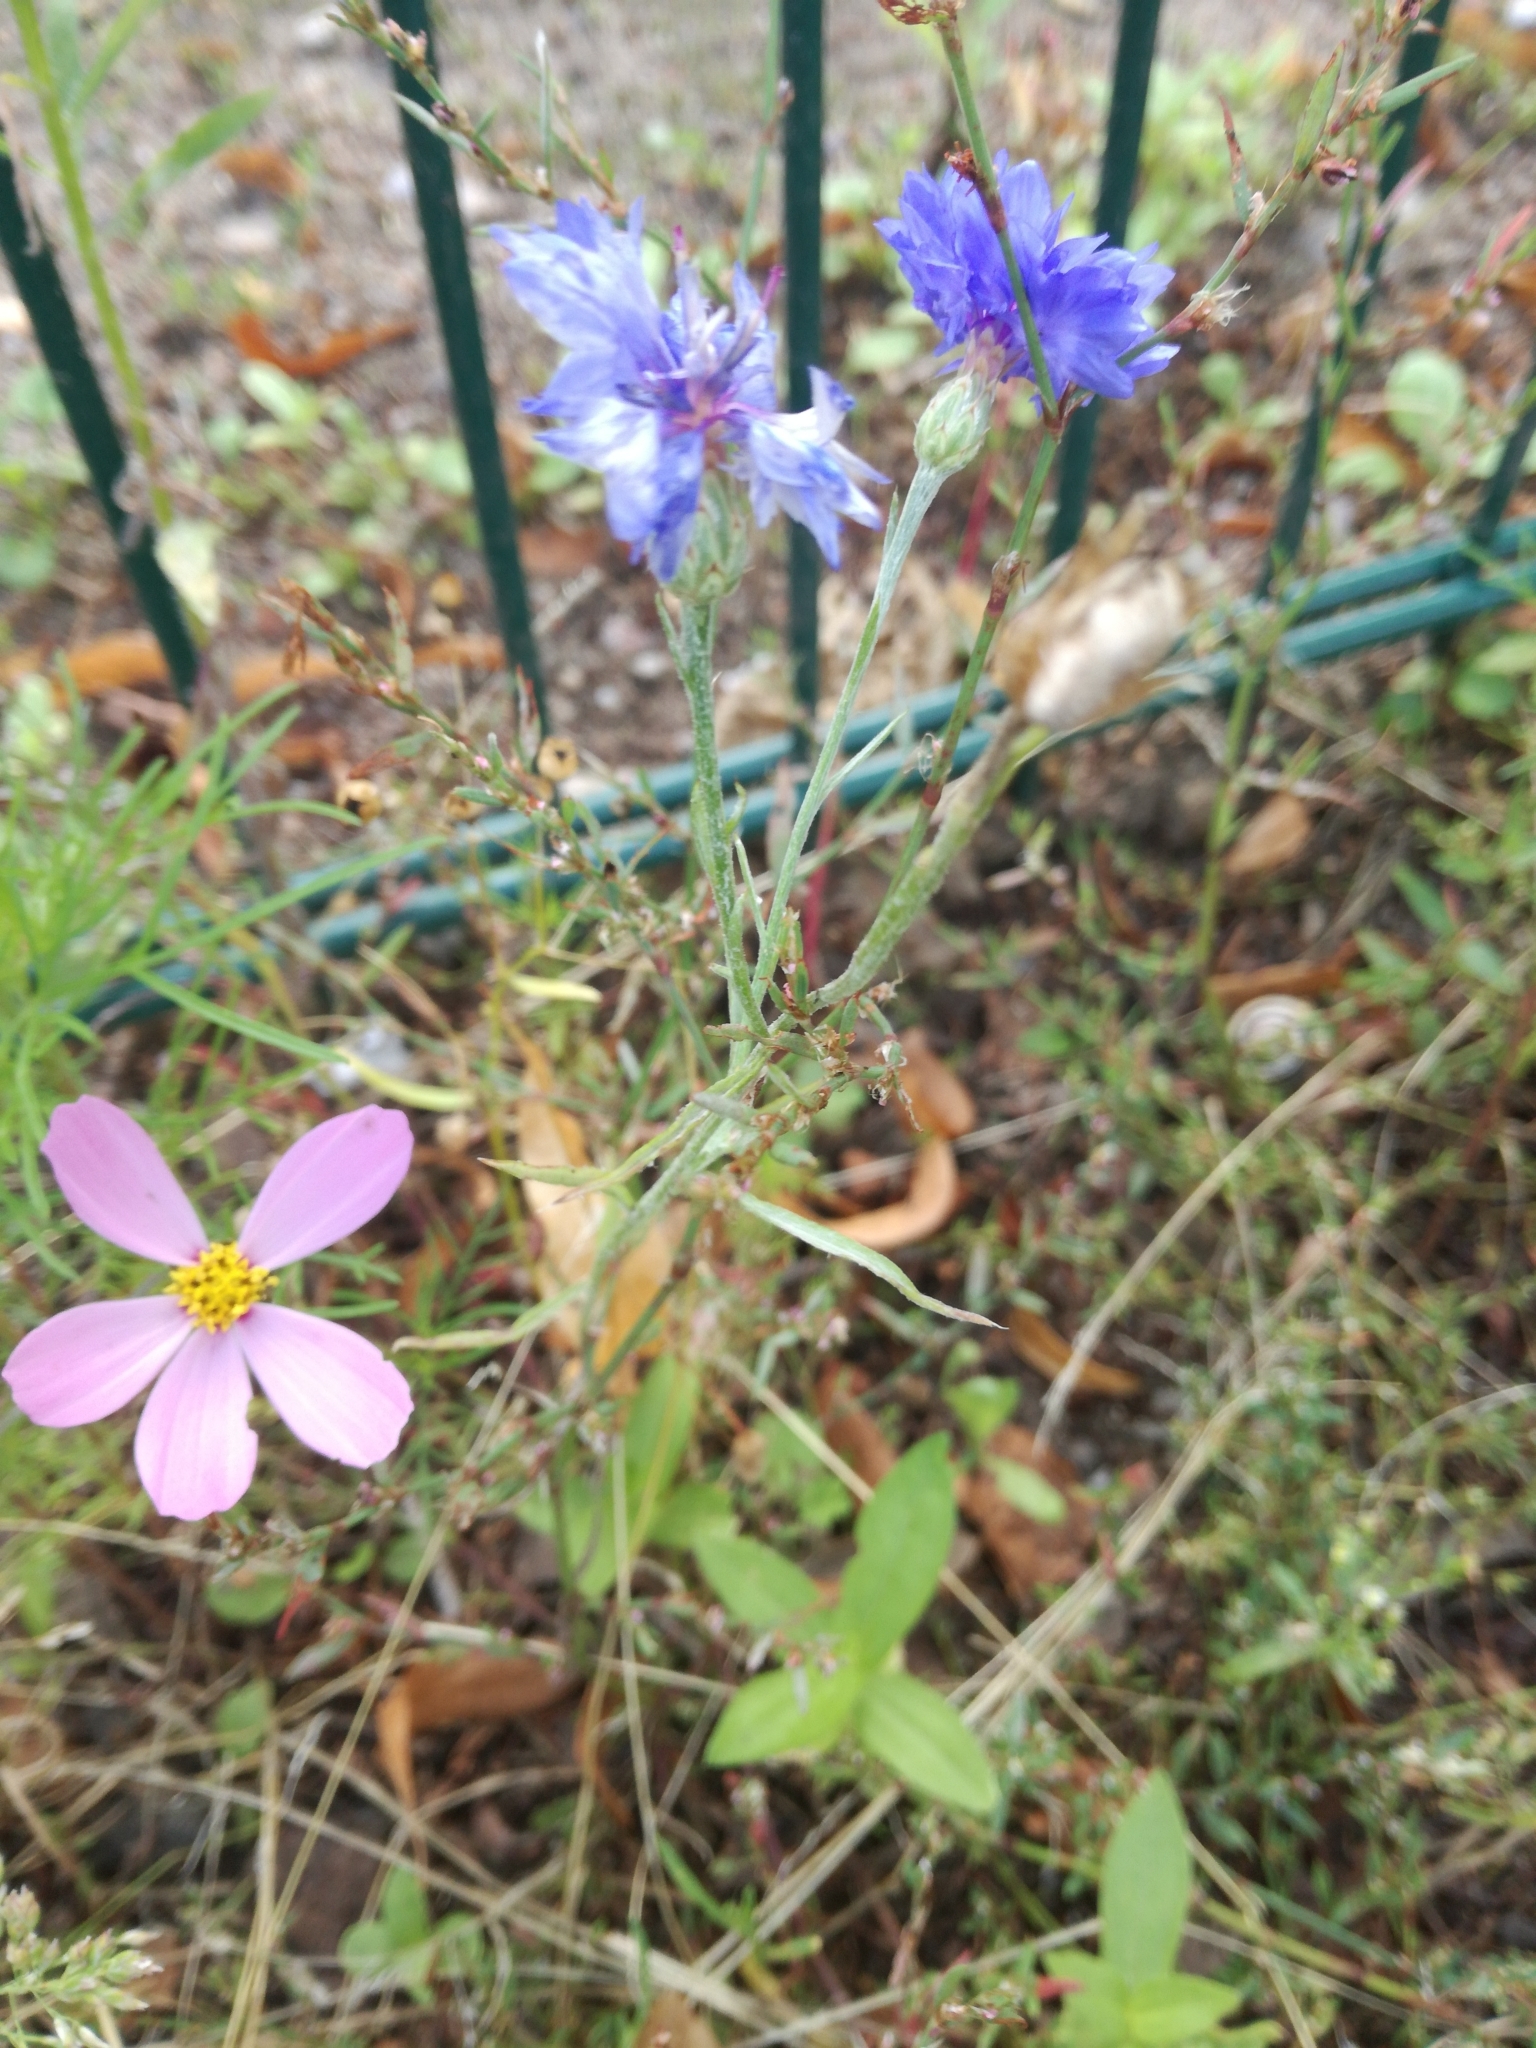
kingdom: Plantae
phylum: Tracheophyta
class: Magnoliopsida
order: Asterales
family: Asteraceae
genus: Centaurea
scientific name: Centaurea cyanus
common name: Cornflower
